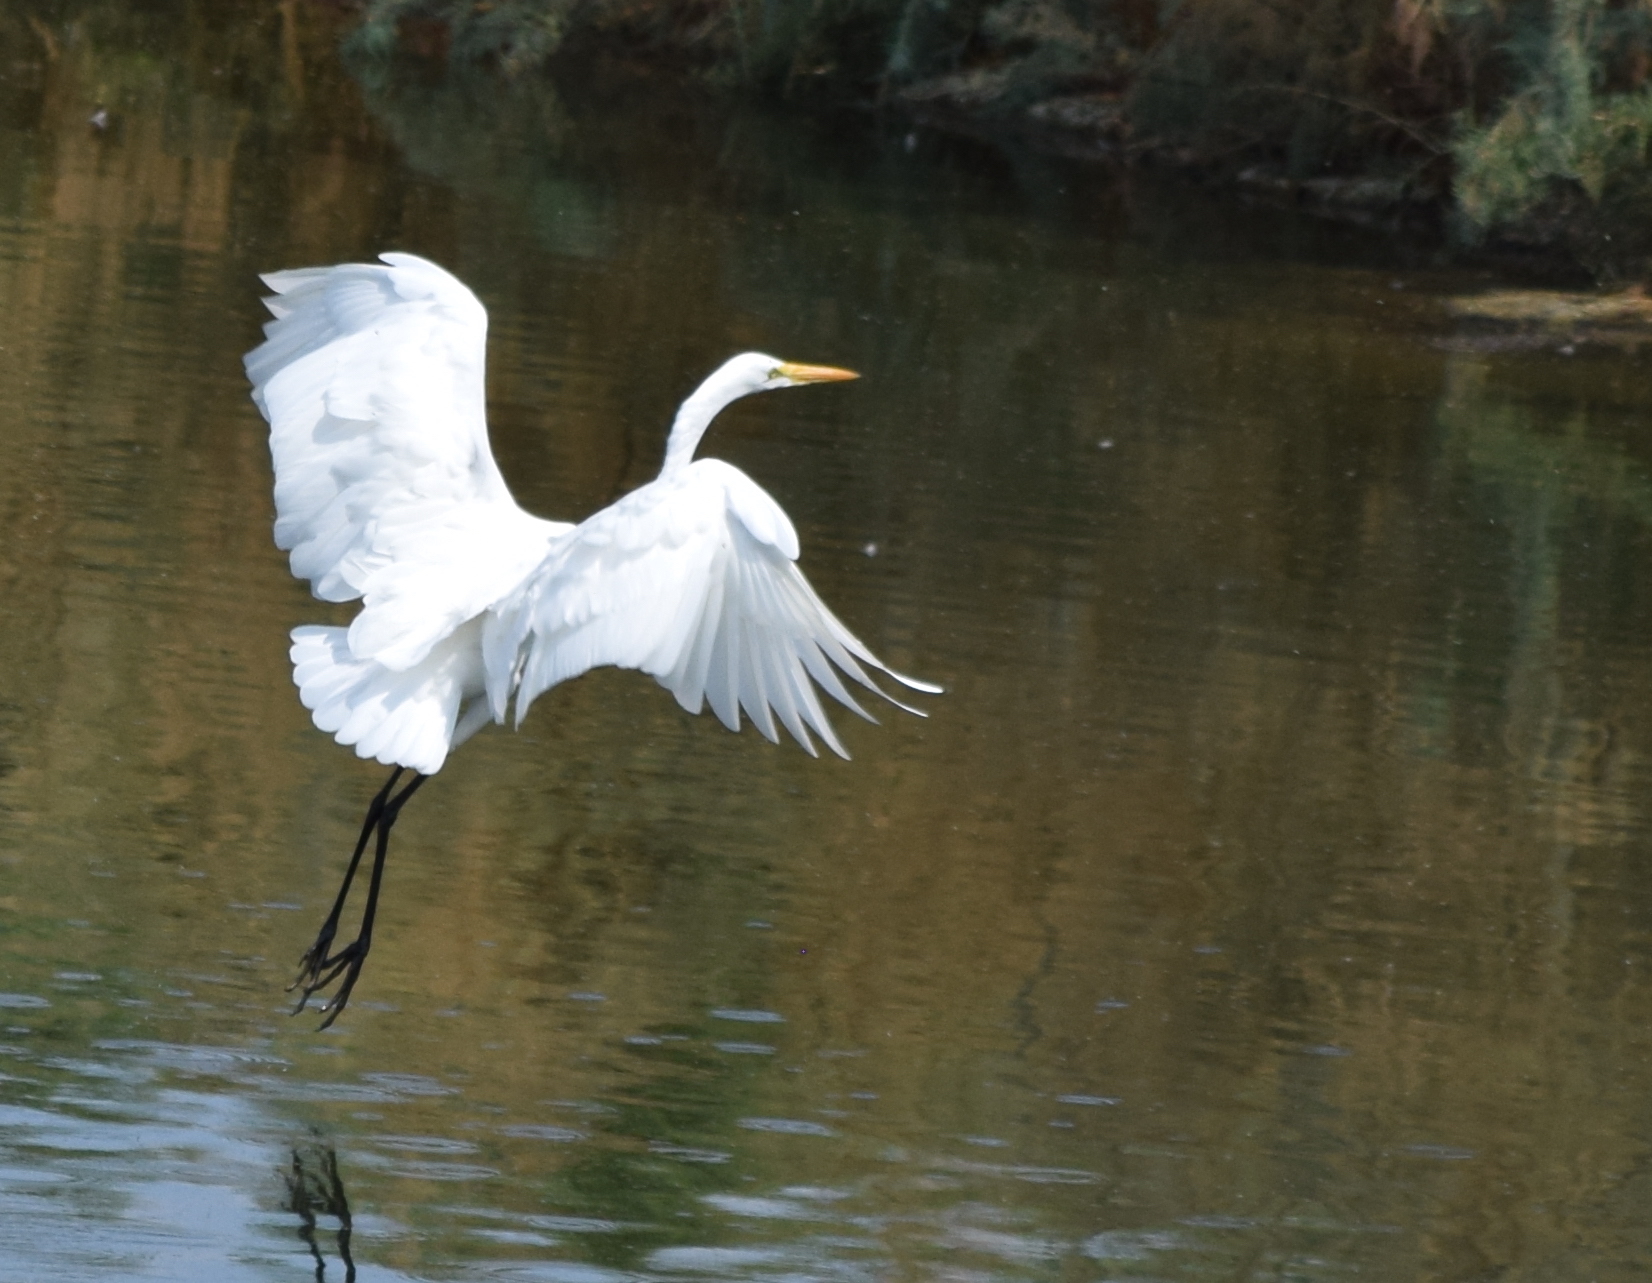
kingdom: Animalia
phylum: Chordata
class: Aves
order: Pelecaniformes
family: Ardeidae
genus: Ardea
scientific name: Ardea alba
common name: Great egret
